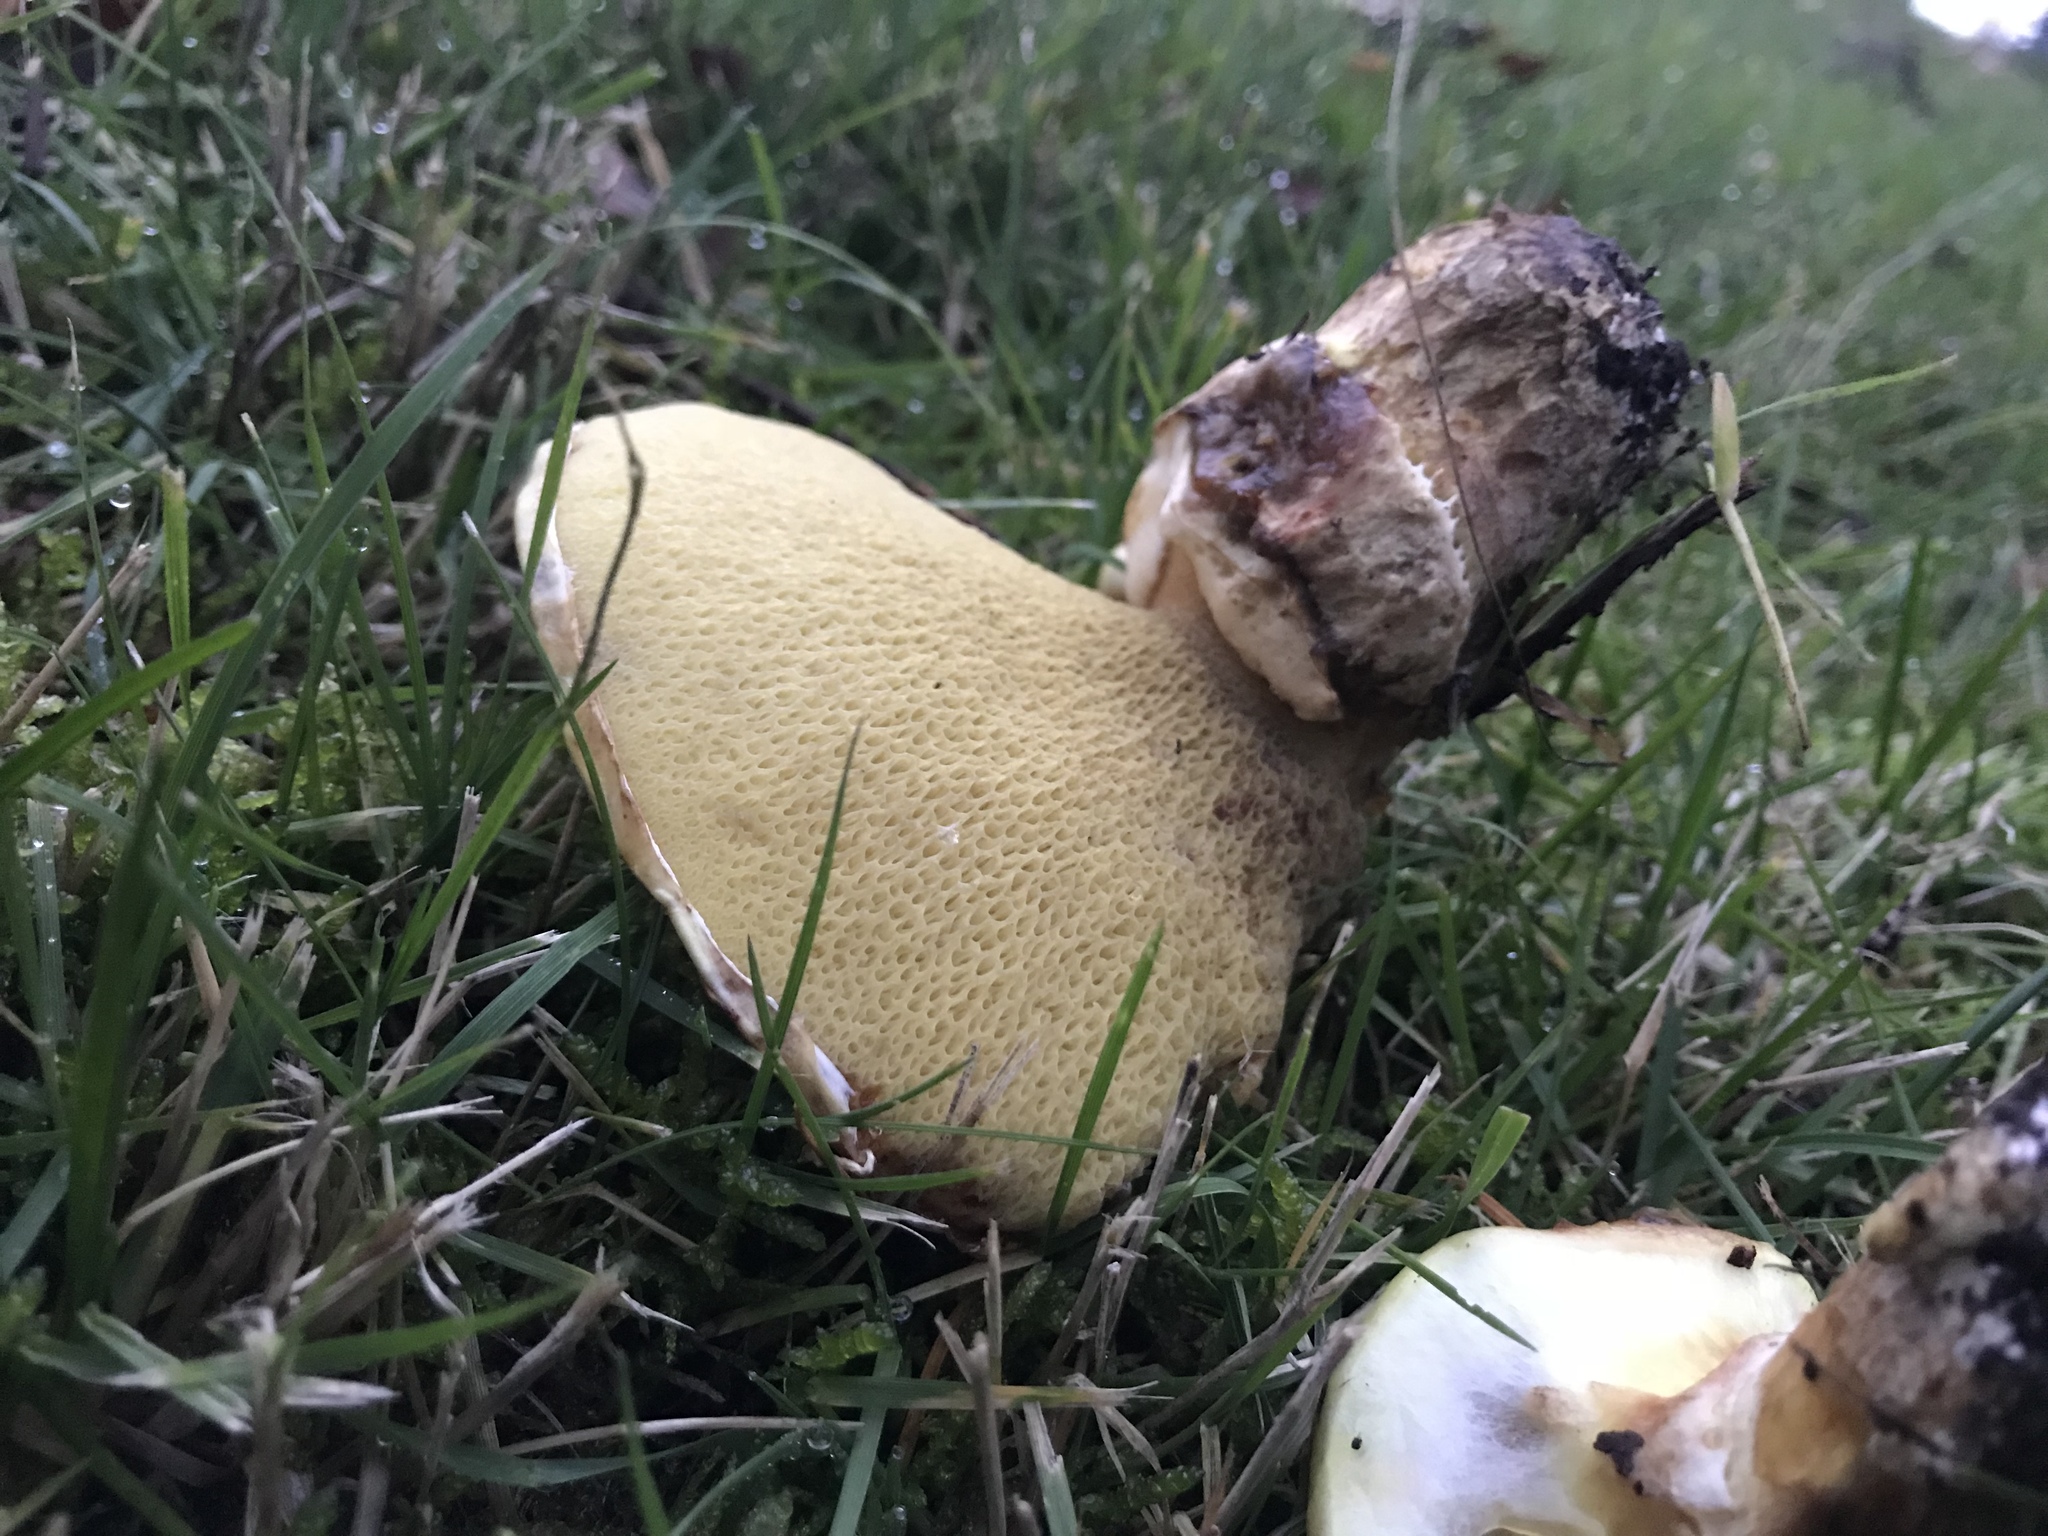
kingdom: Fungi
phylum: Basidiomycota
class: Agaricomycetes
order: Boletales
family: Suillaceae
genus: Suillus
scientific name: Suillus caerulescens
